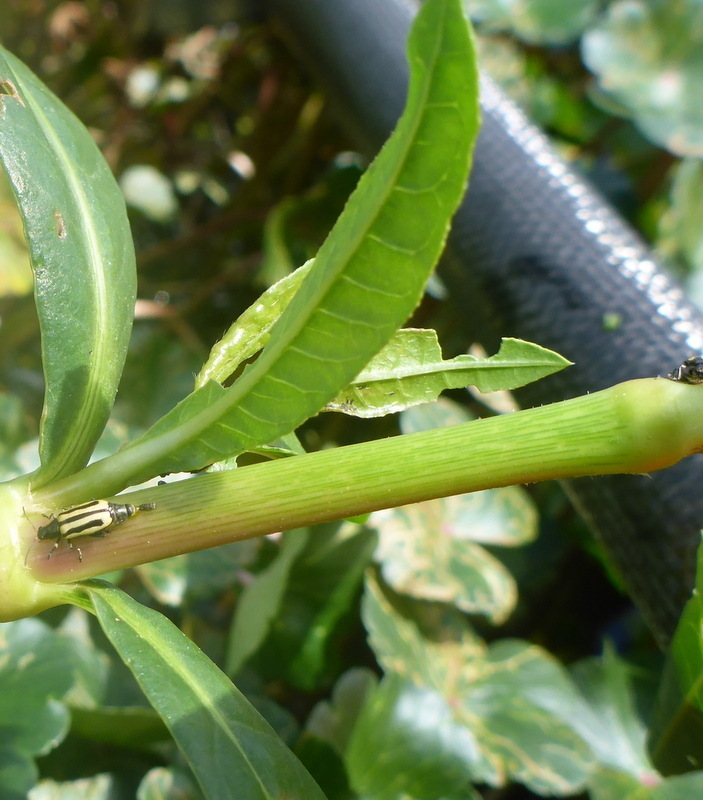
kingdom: Animalia
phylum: Arthropoda
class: Insecta
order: Coleoptera
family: Chrysomelidae
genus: Agasicles
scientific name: Agasicles hygrophila
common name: Alligatorweed flea beetle
